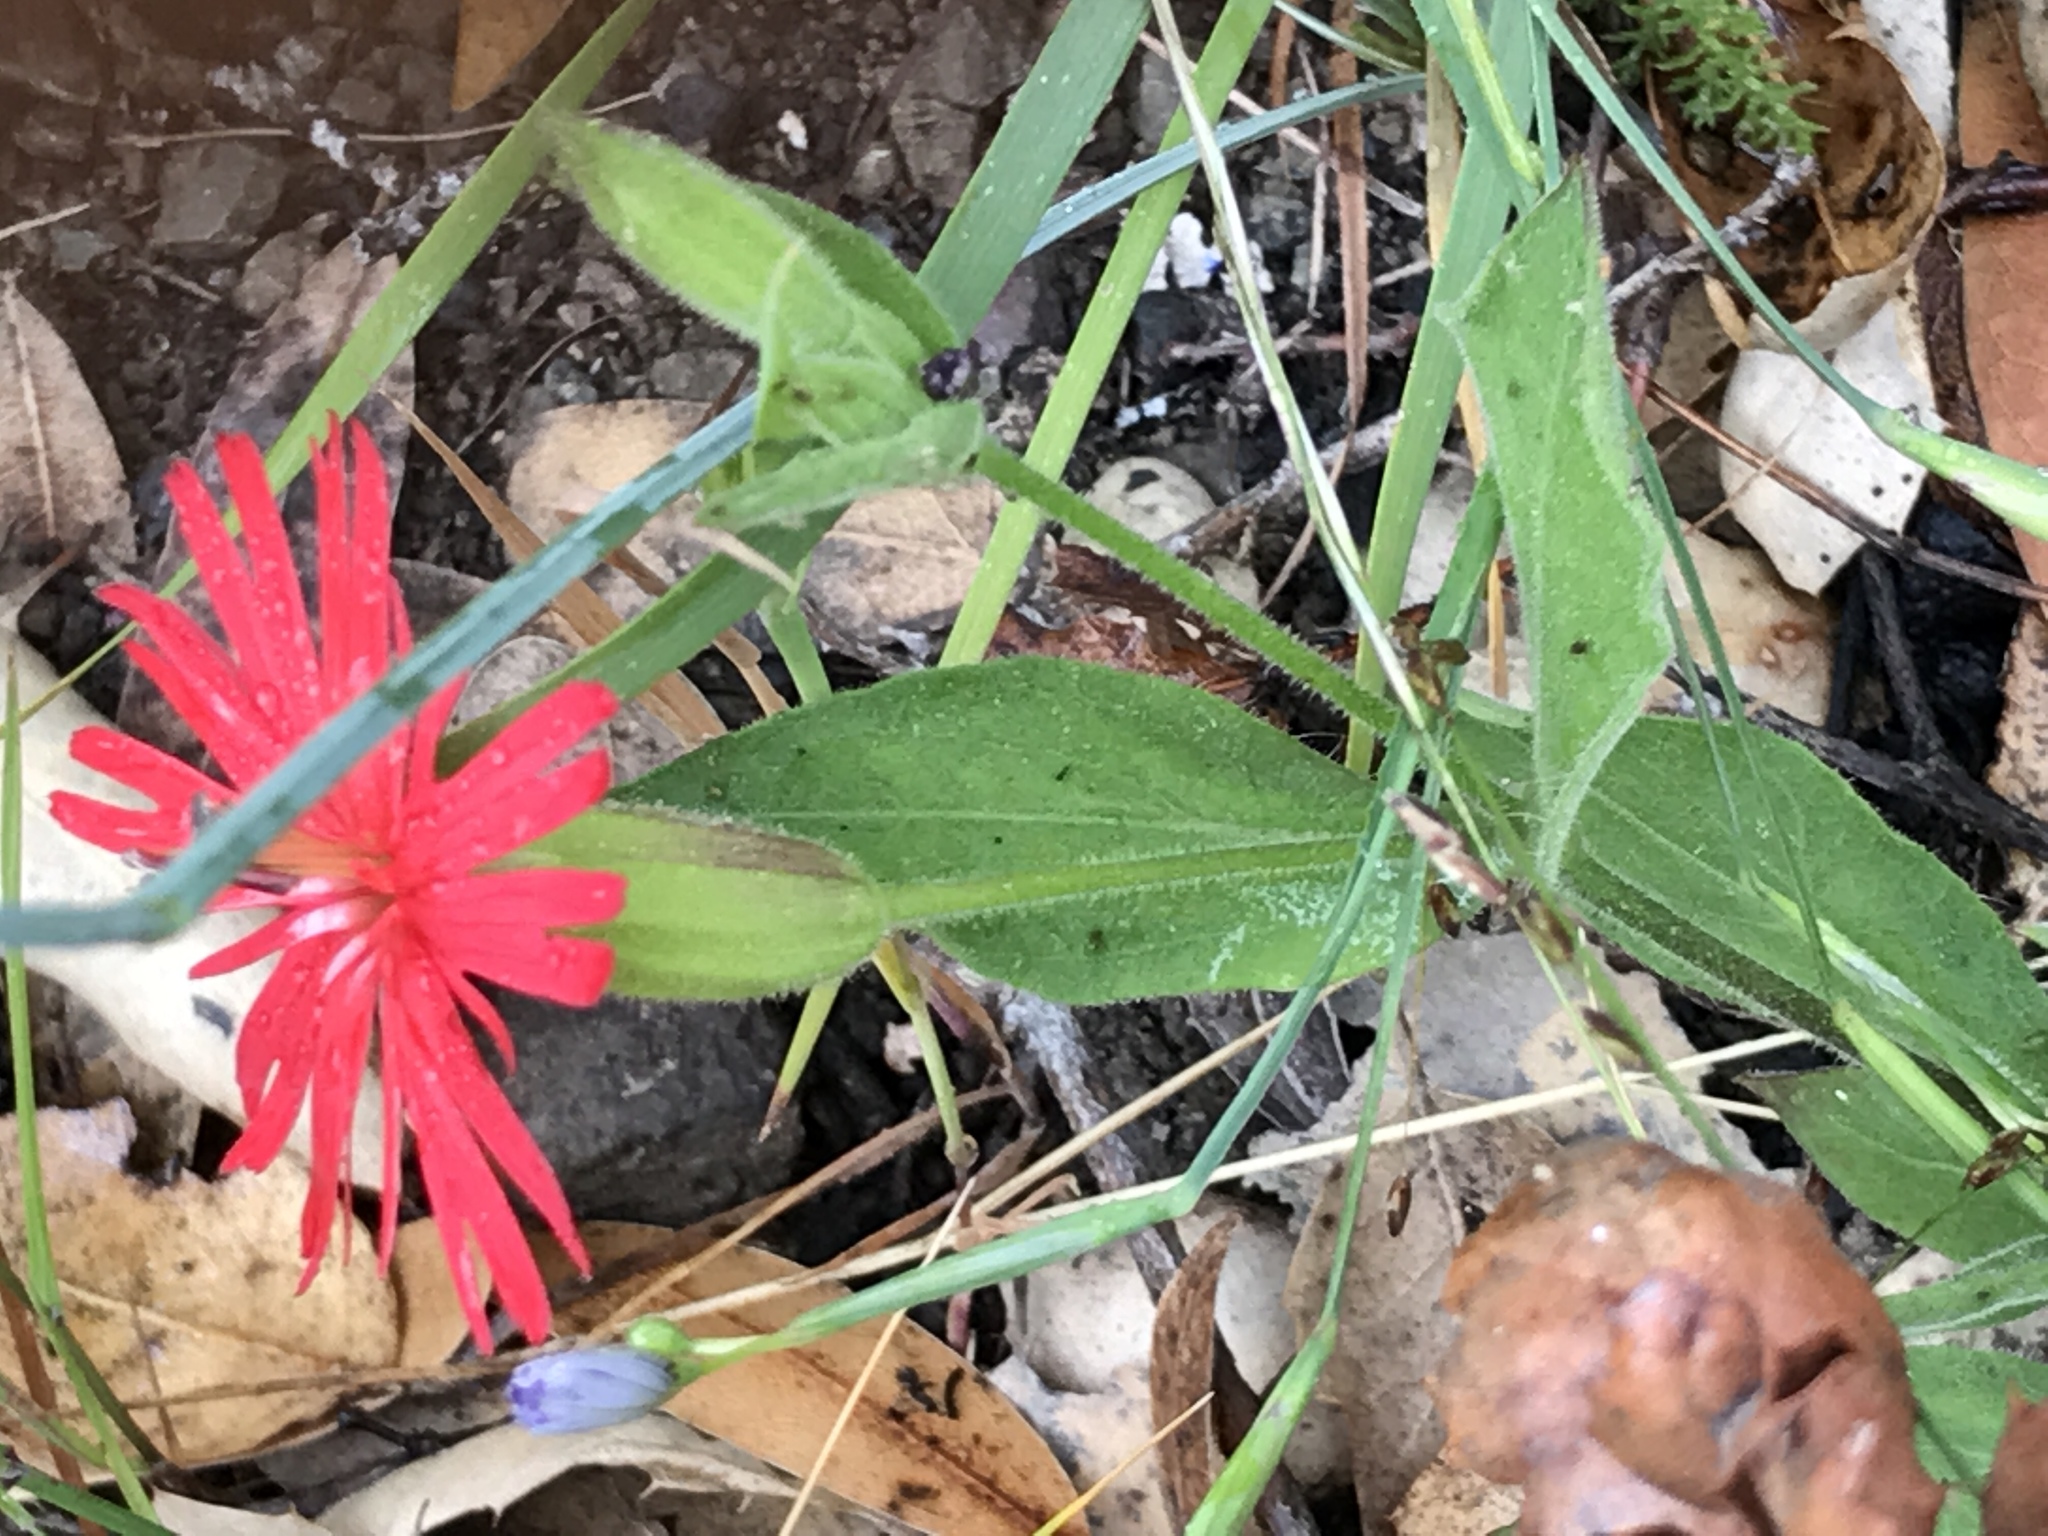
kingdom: Plantae
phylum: Tracheophyta
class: Magnoliopsida
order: Caryophyllales
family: Caryophyllaceae
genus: Silene
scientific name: Silene laciniata
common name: Indian-pink
